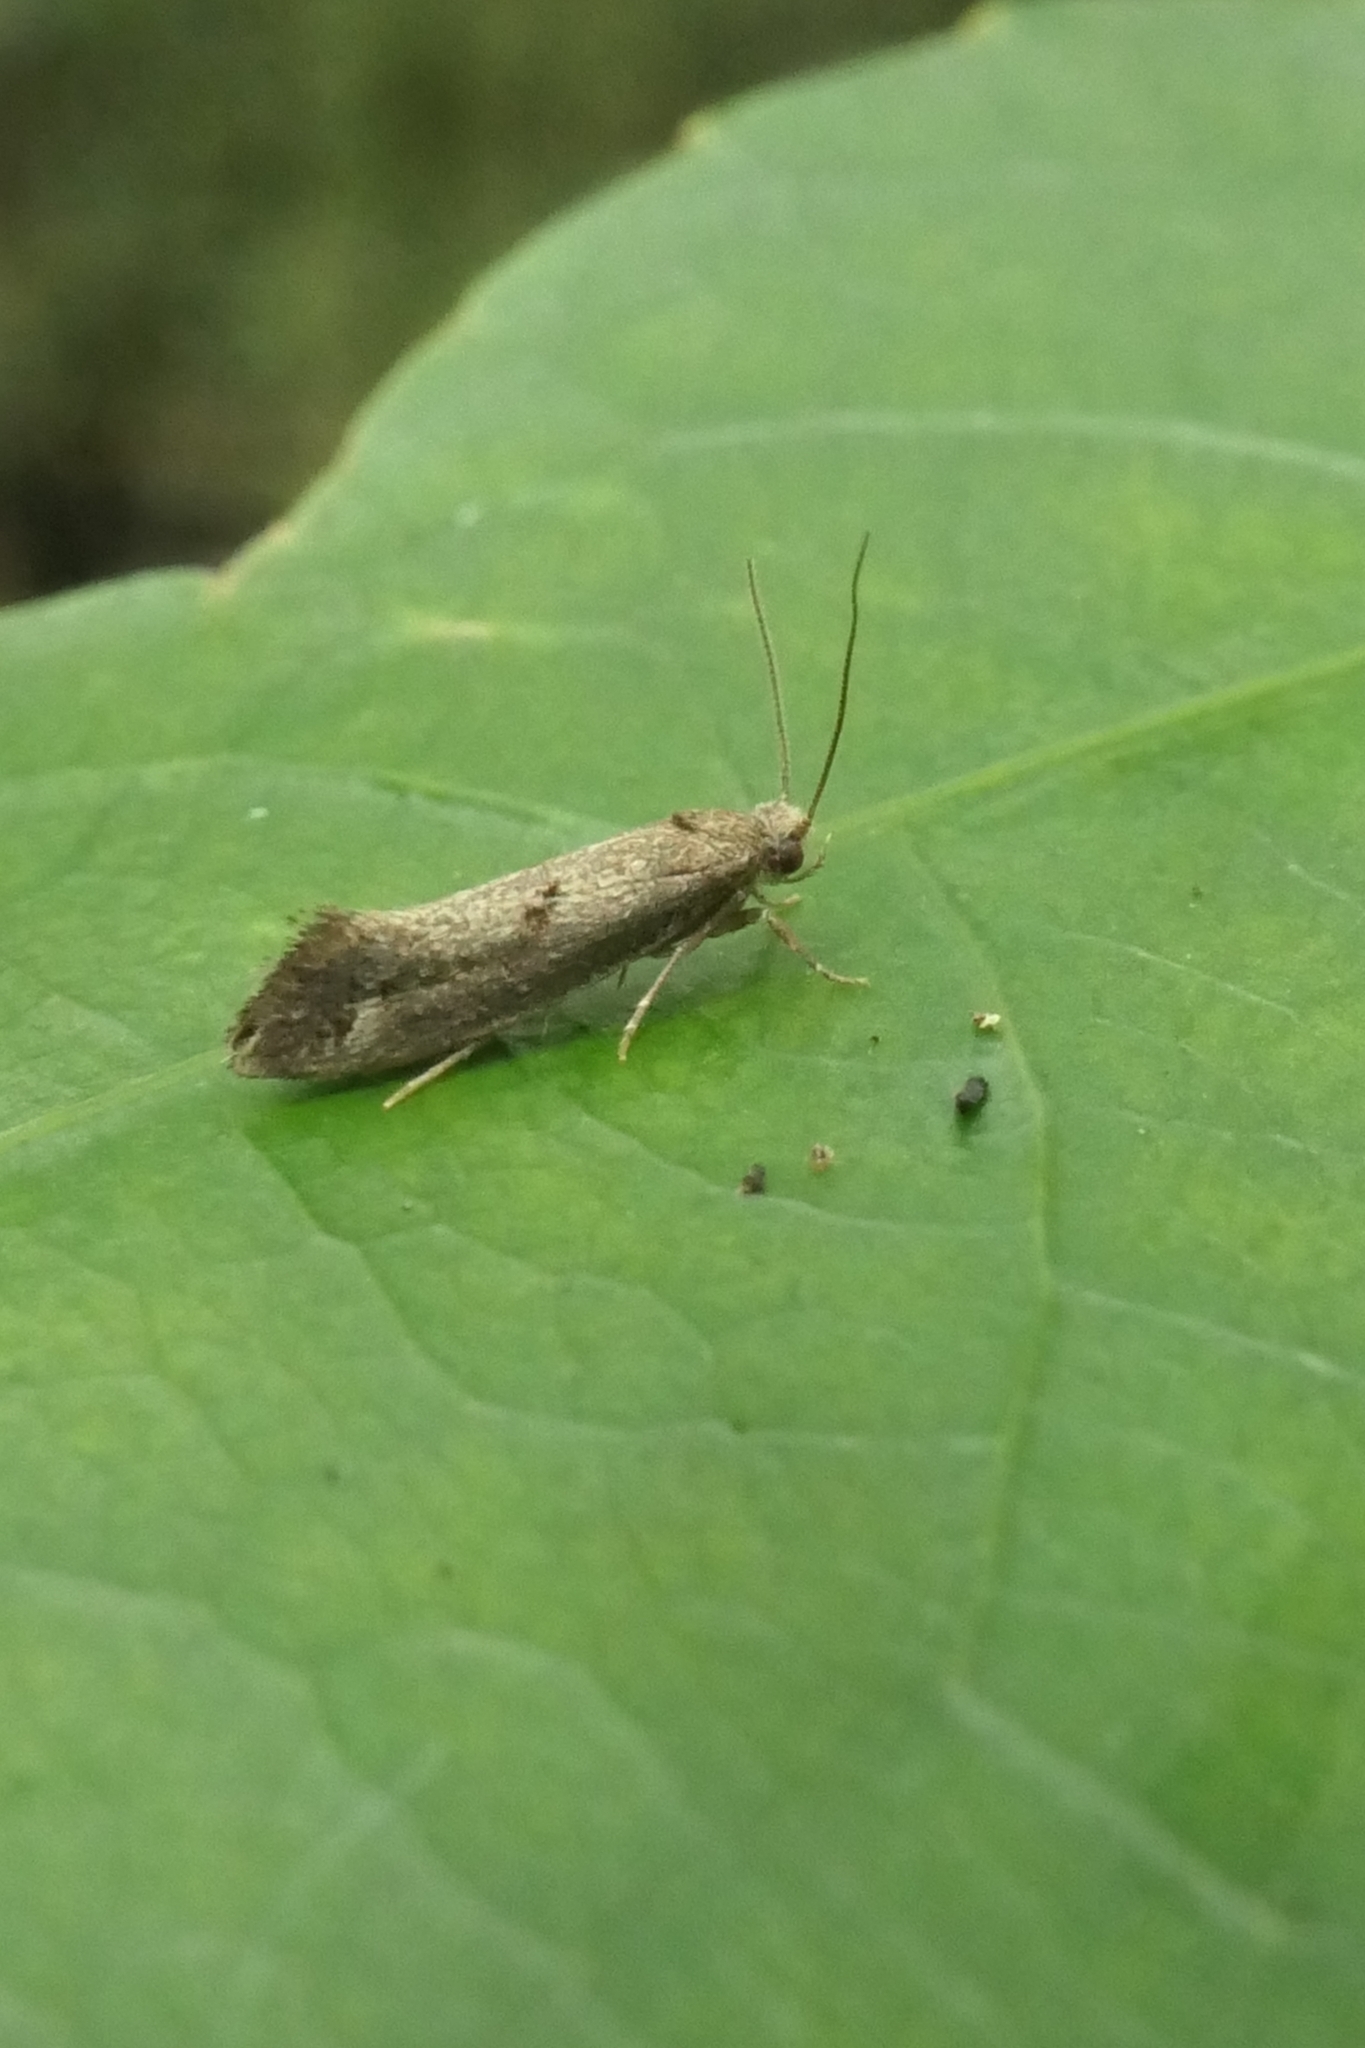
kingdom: Animalia
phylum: Arthropoda
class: Insecta
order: Lepidoptera
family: Tineidae
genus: Tinea
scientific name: Tinea mochlota
